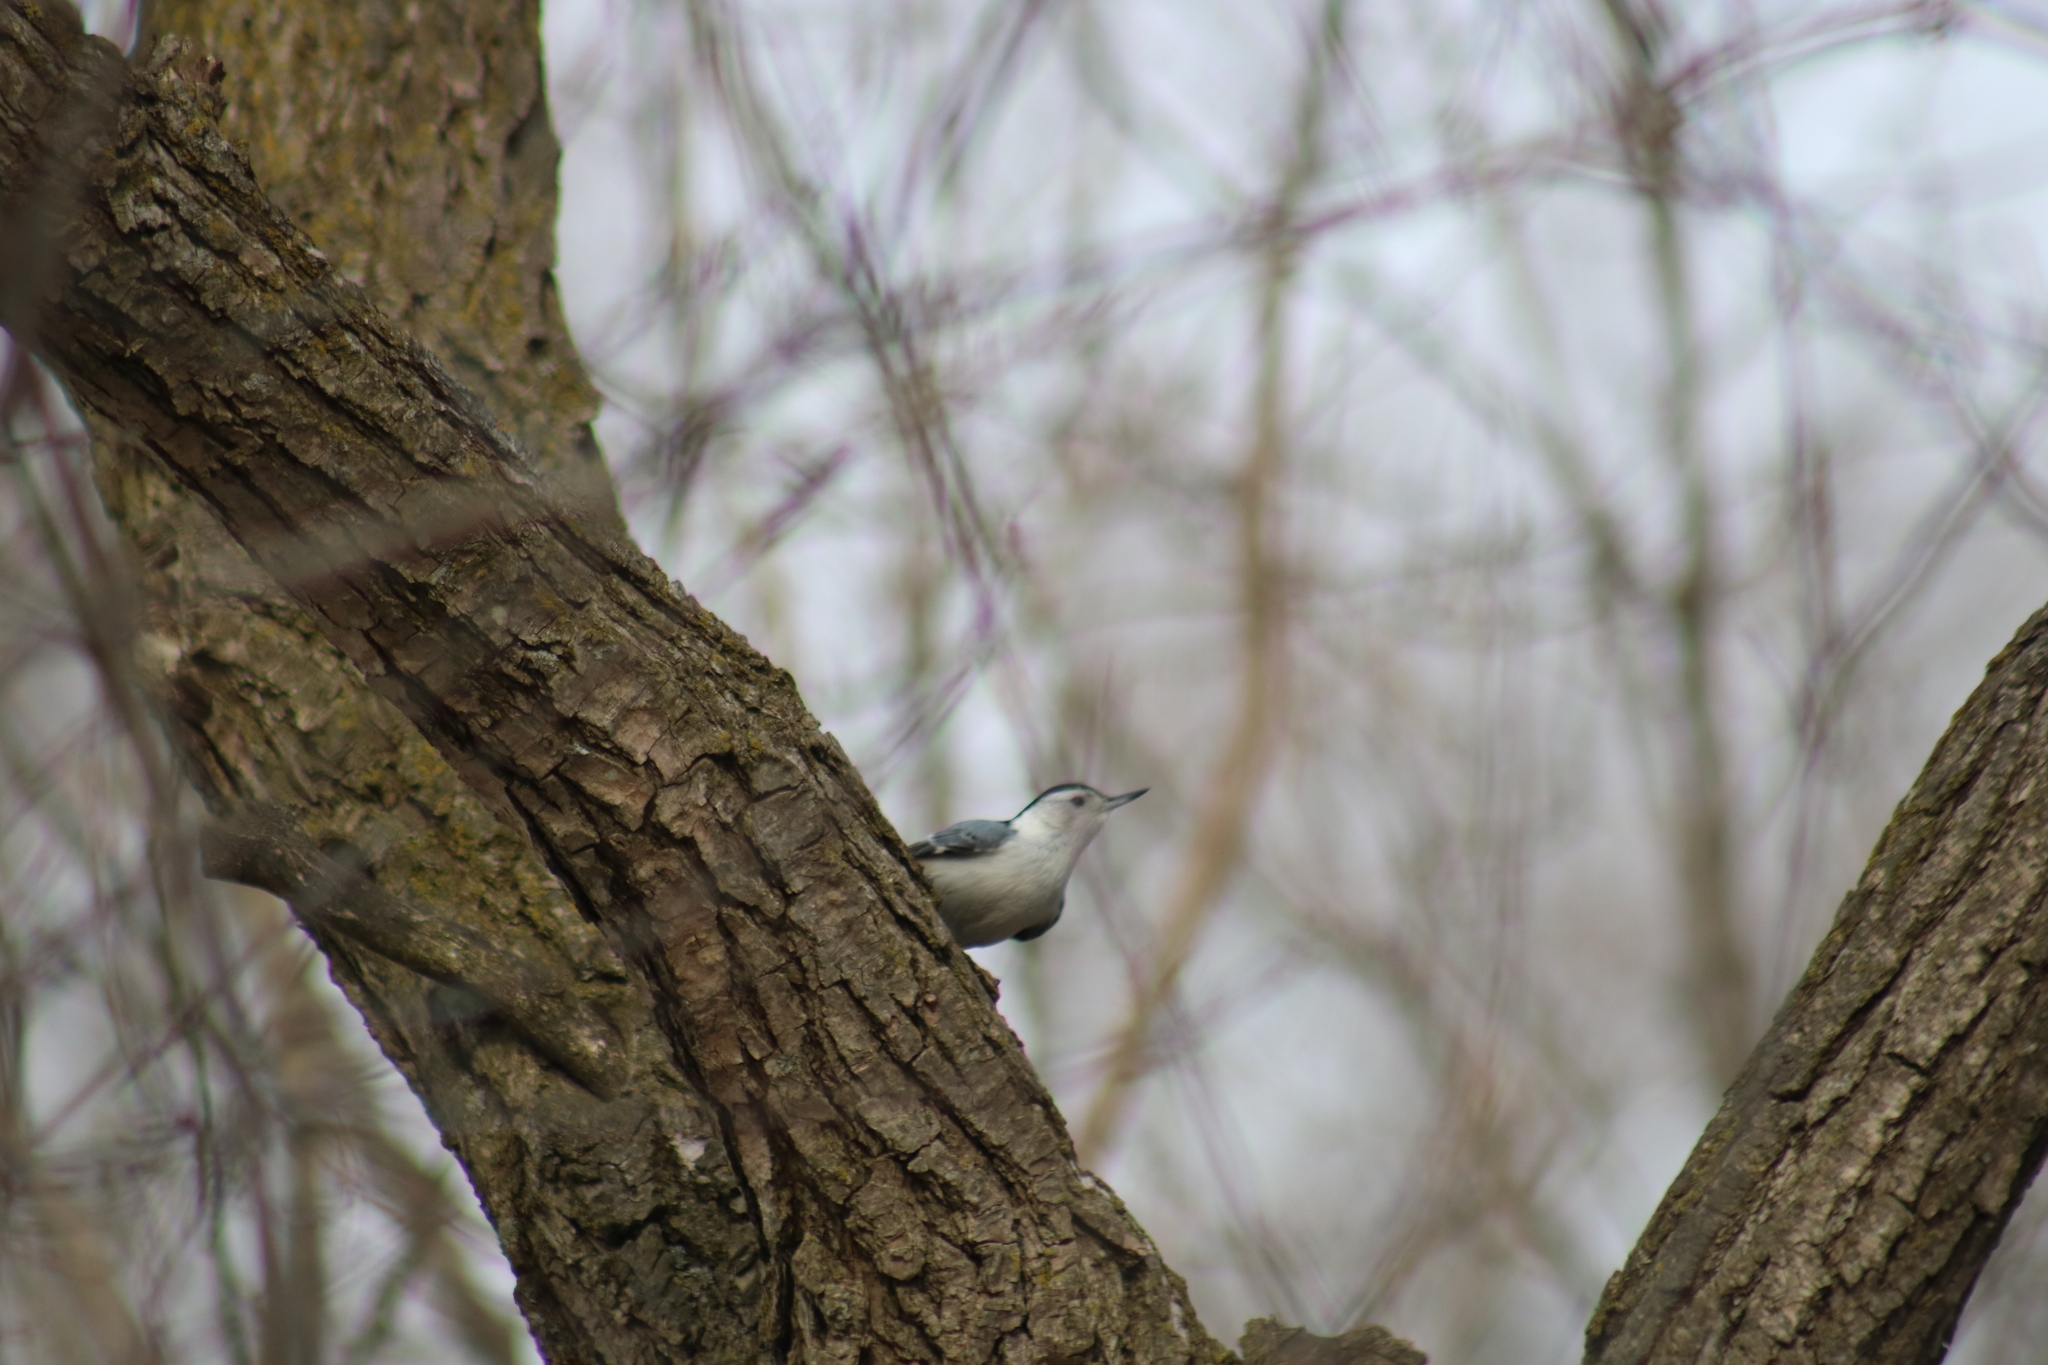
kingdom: Animalia
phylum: Chordata
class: Aves
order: Passeriformes
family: Sittidae
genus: Sitta
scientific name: Sitta carolinensis
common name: White-breasted nuthatch
